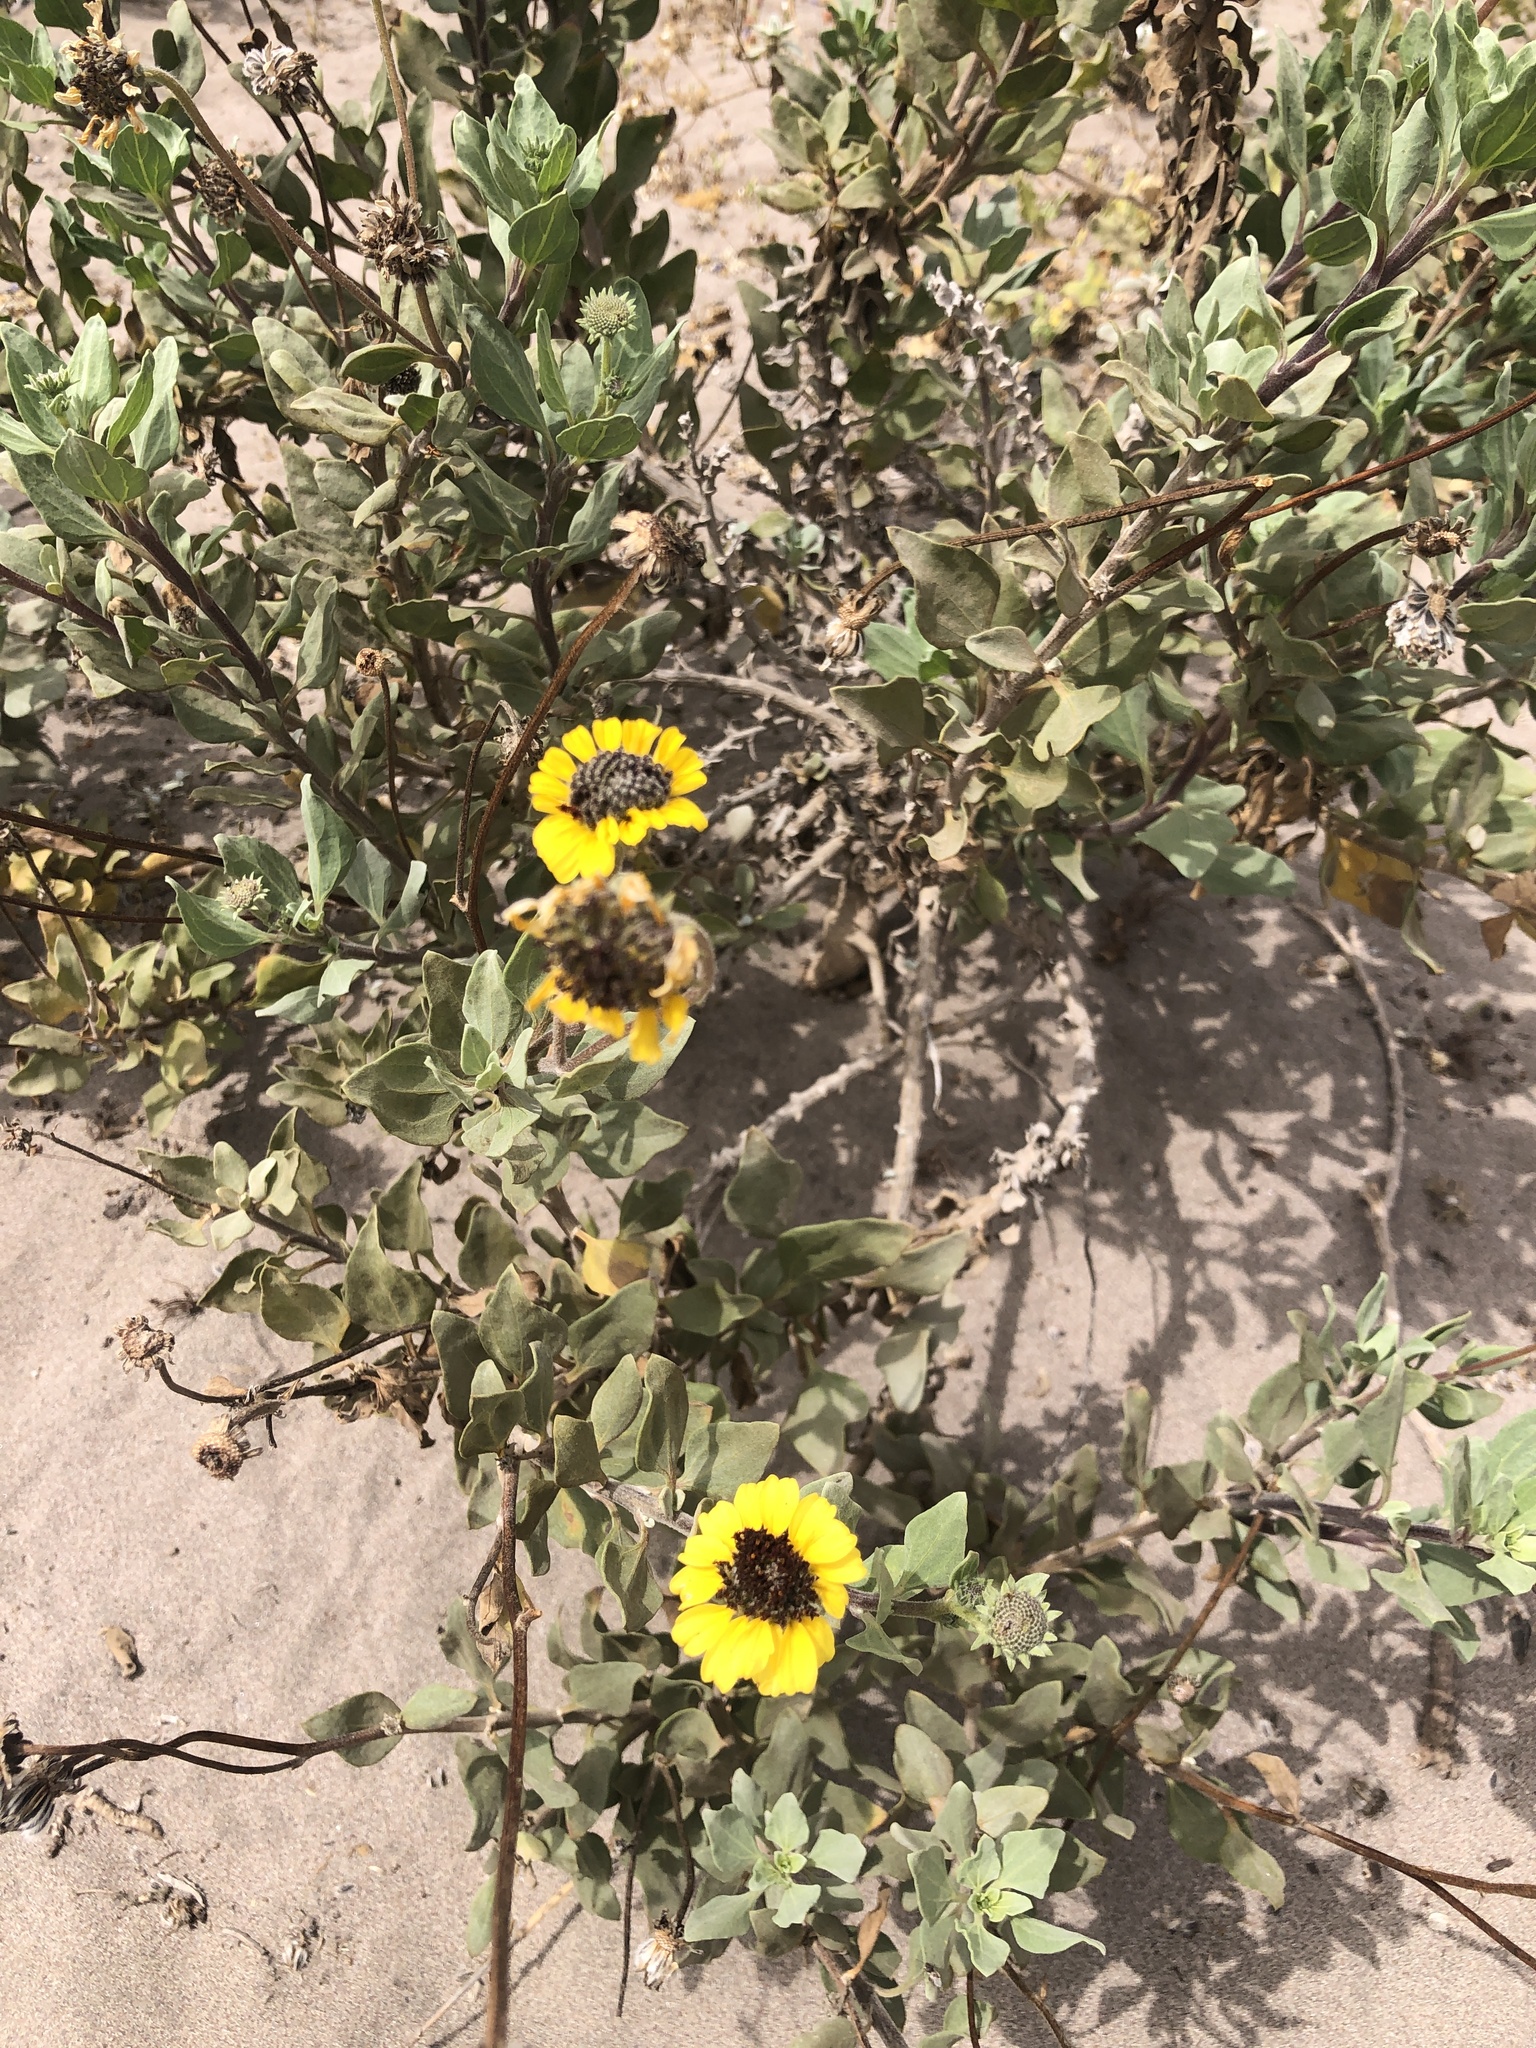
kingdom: Plantae
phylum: Tracheophyta
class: Magnoliopsida
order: Asterales
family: Asteraceae
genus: Encelia
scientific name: Encelia canescens
